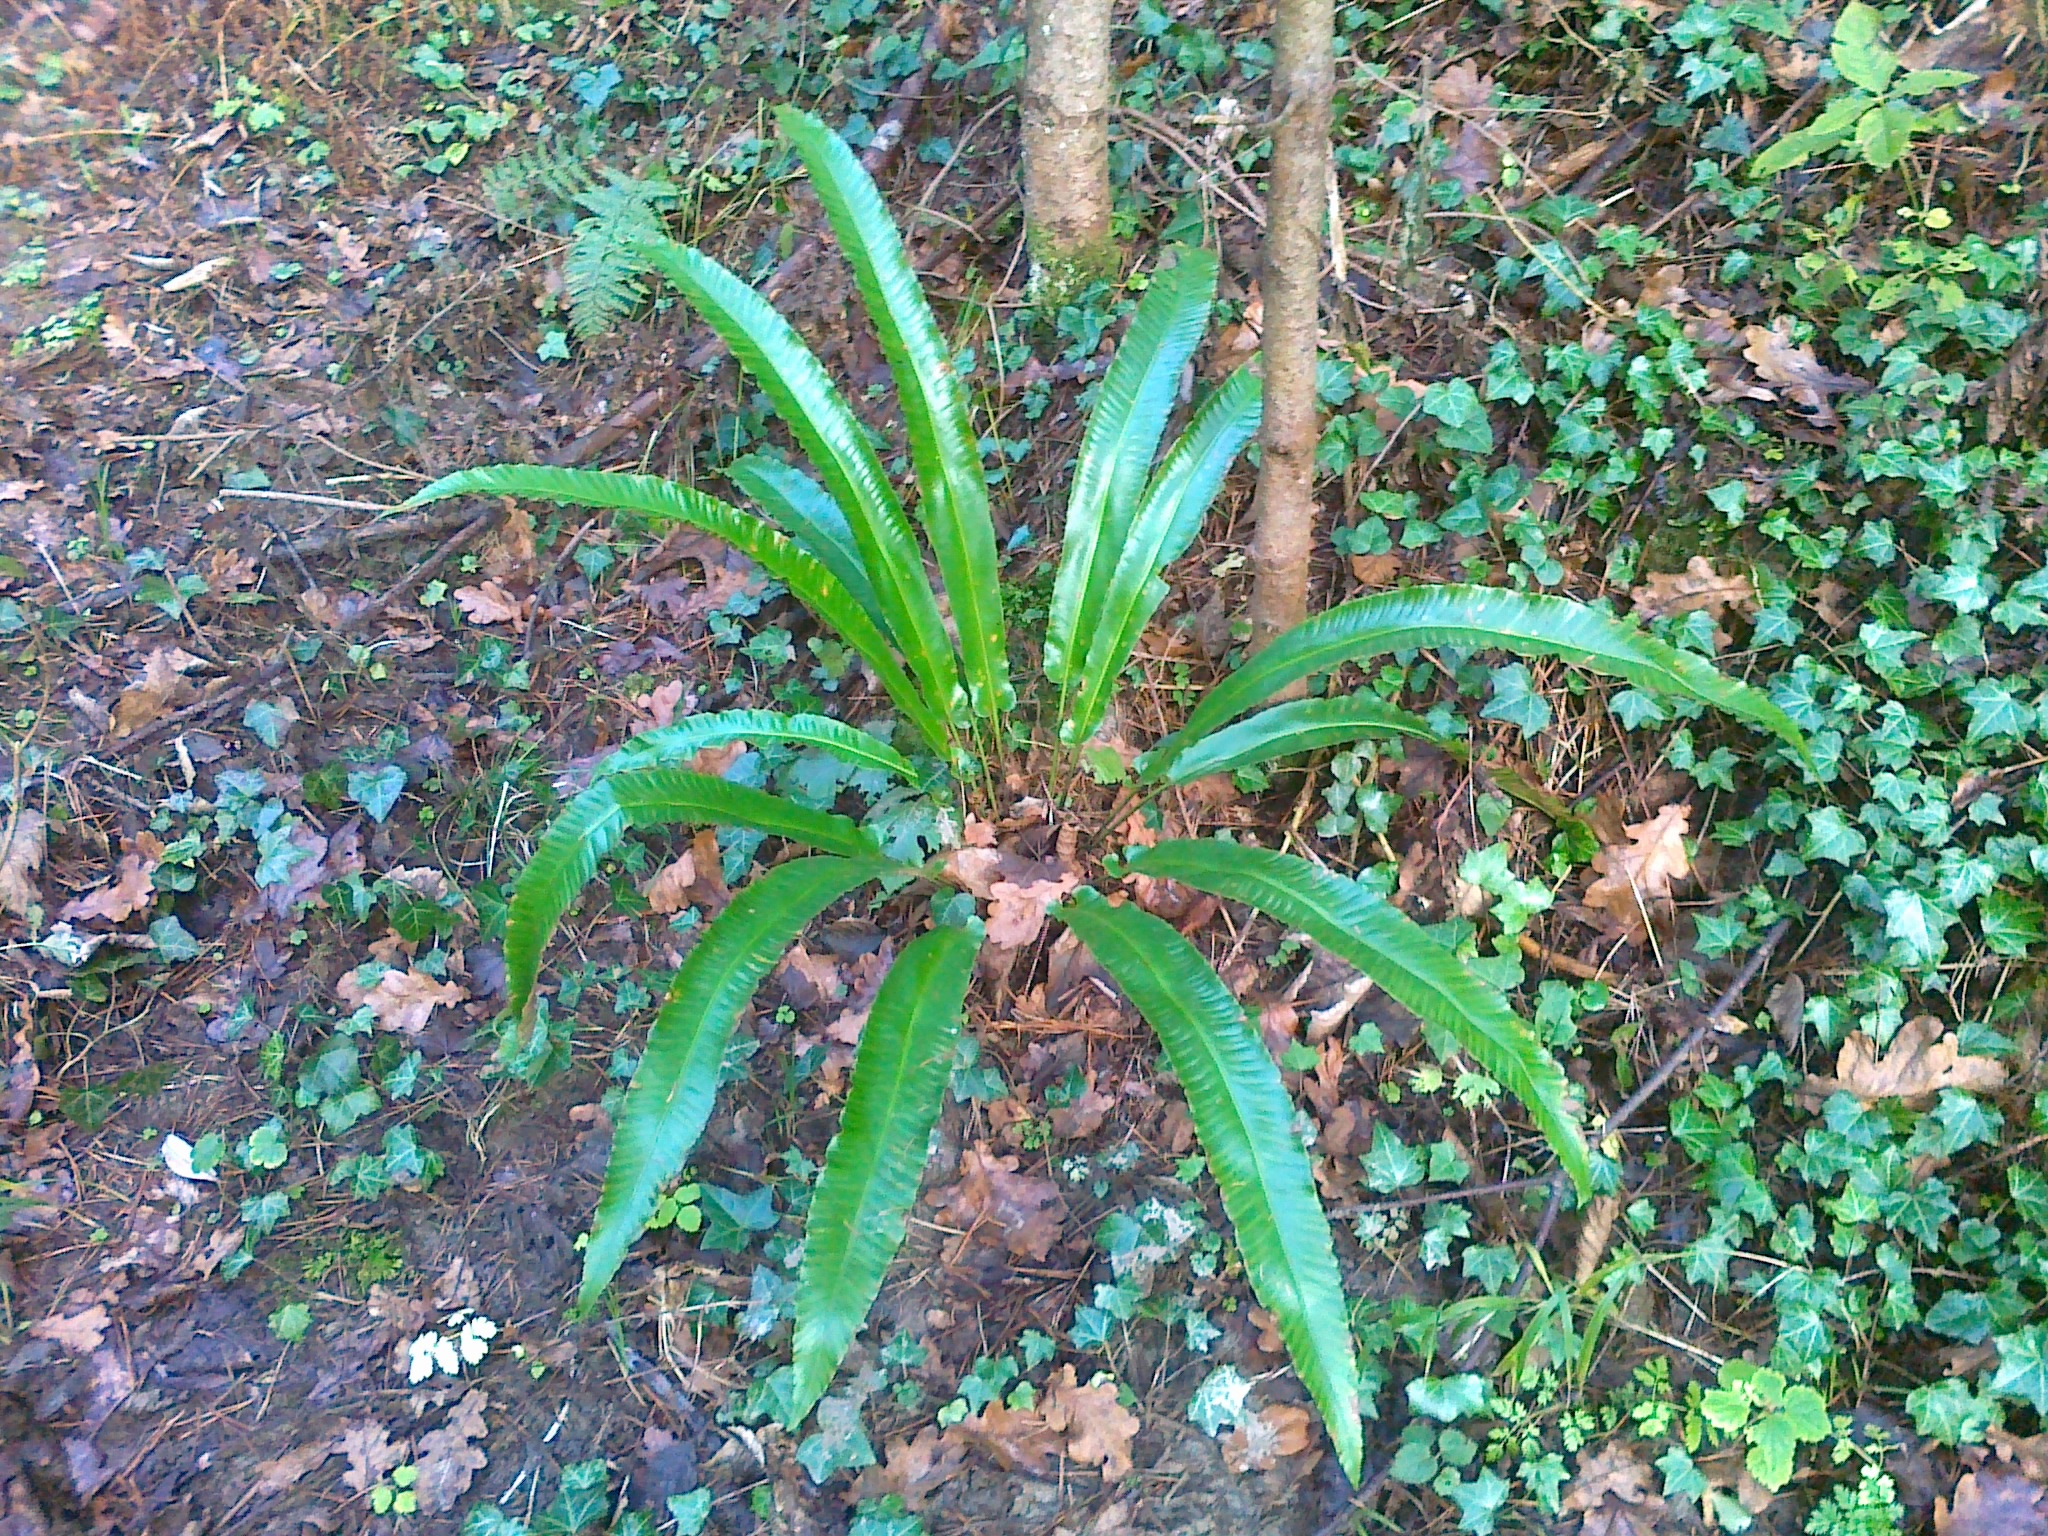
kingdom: Plantae
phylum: Tracheophyta
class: Polypodiopsida
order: Polypodiales
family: Aspleniaceae
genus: Asplenium
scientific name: Asplenium scolopendrium
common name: Hart's-tongue fern
